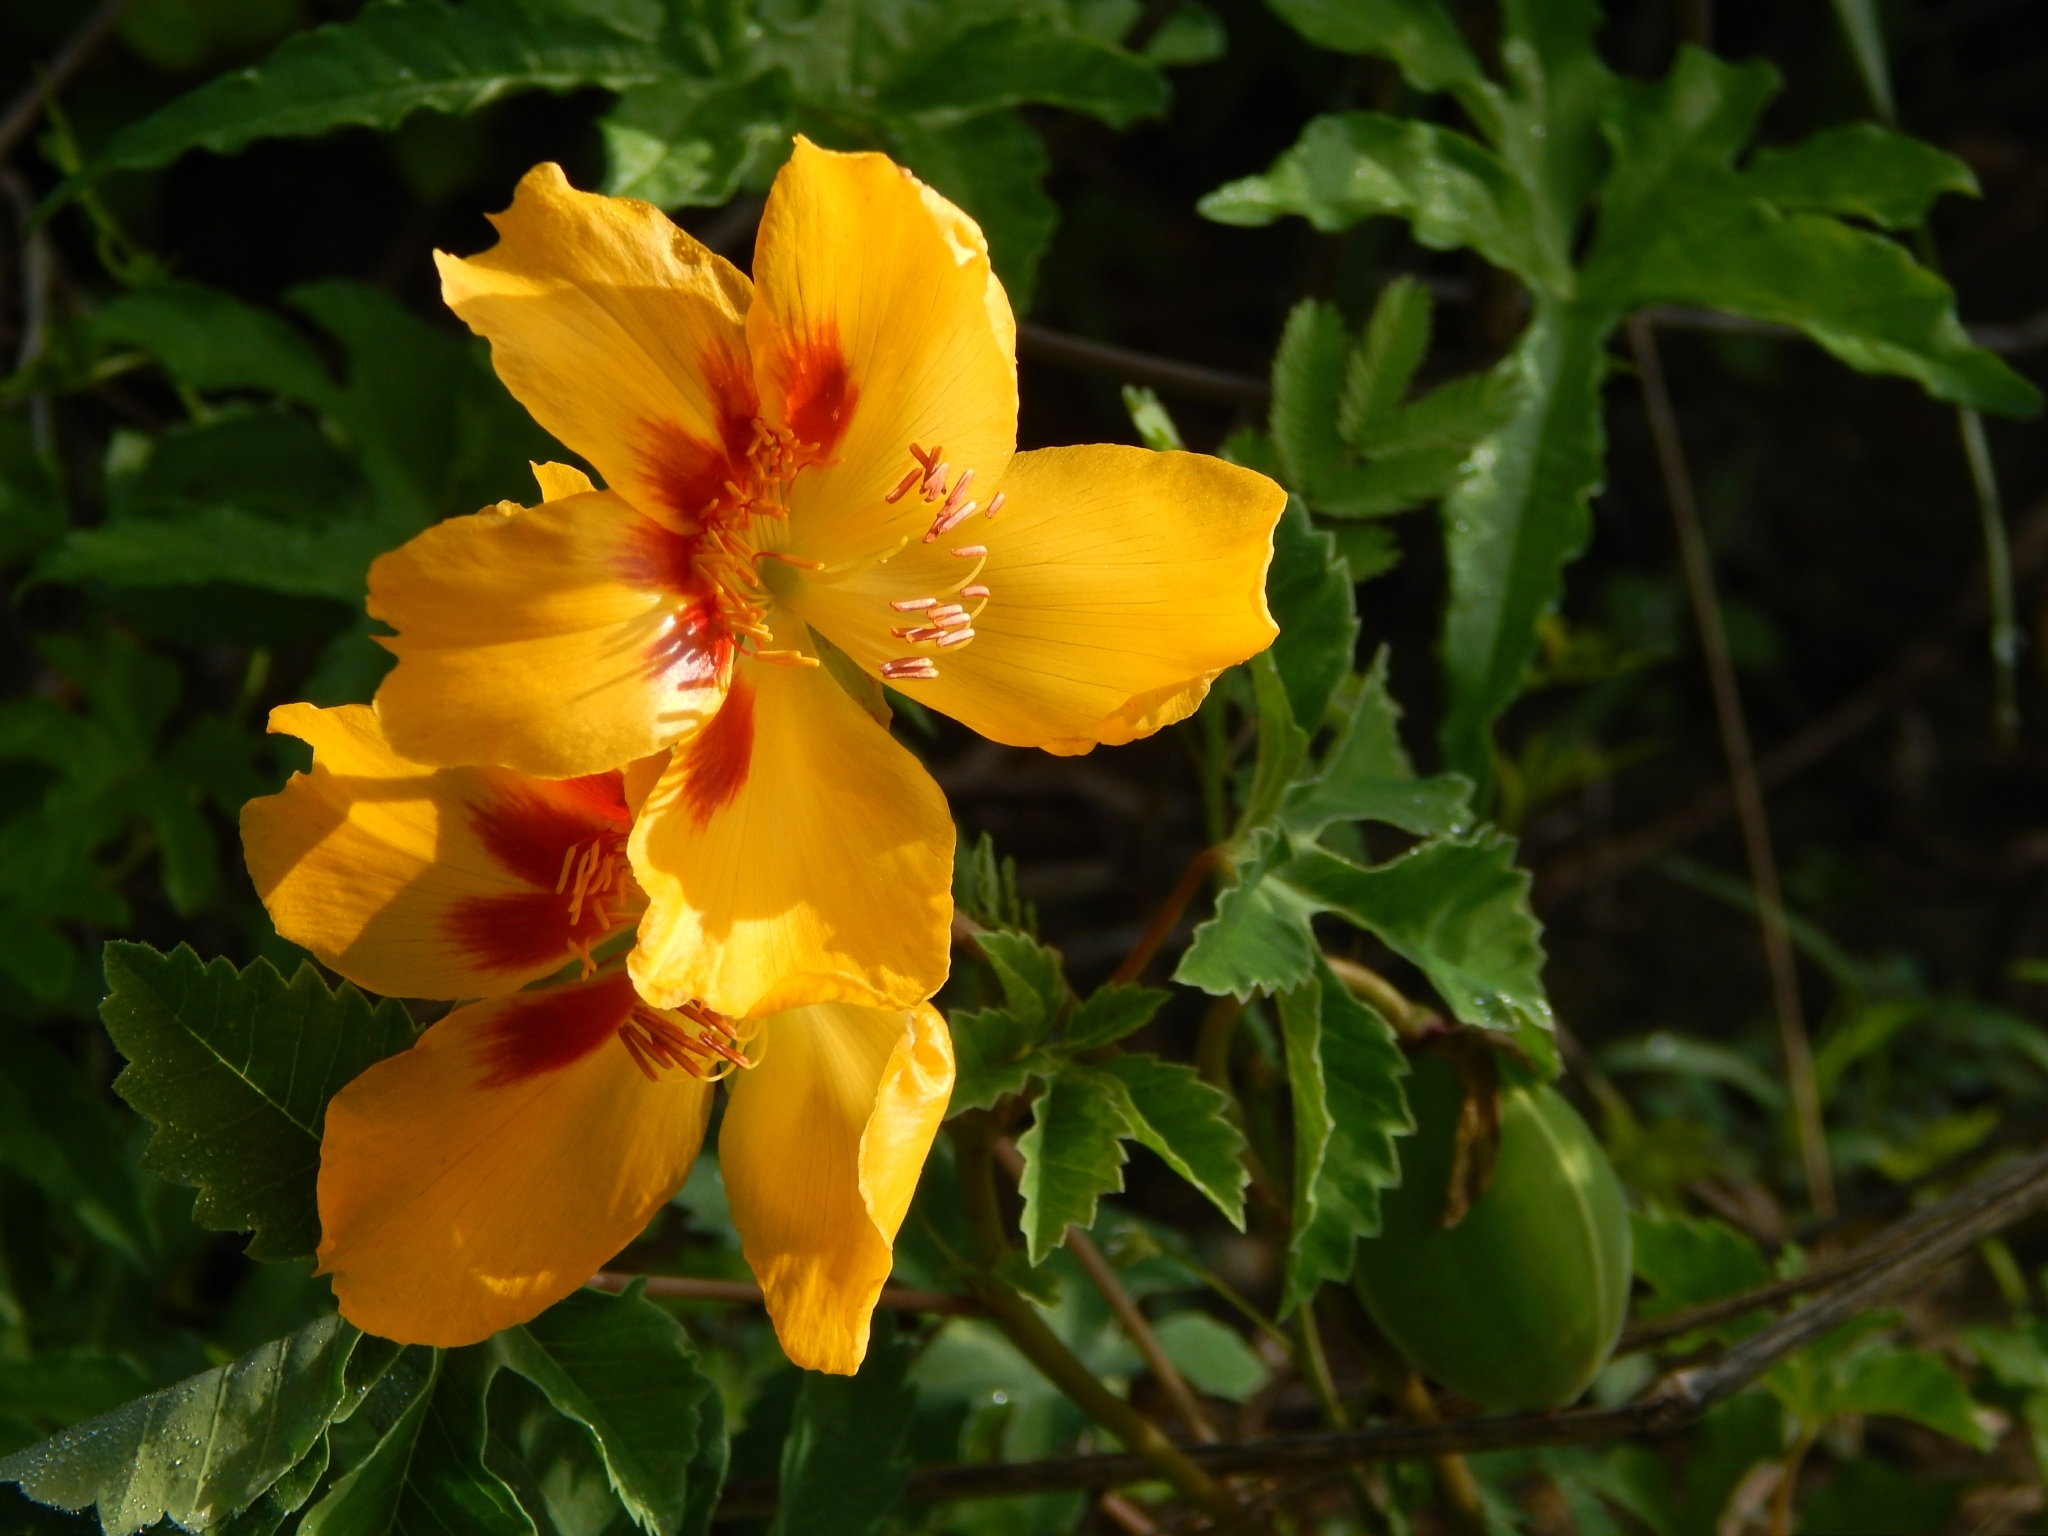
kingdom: Plantae
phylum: Tracheophyta
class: Magnoliopsida
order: Malvales
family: Cochlospermaceae
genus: Cochlospermum
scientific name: Cochlospermum wrightii
